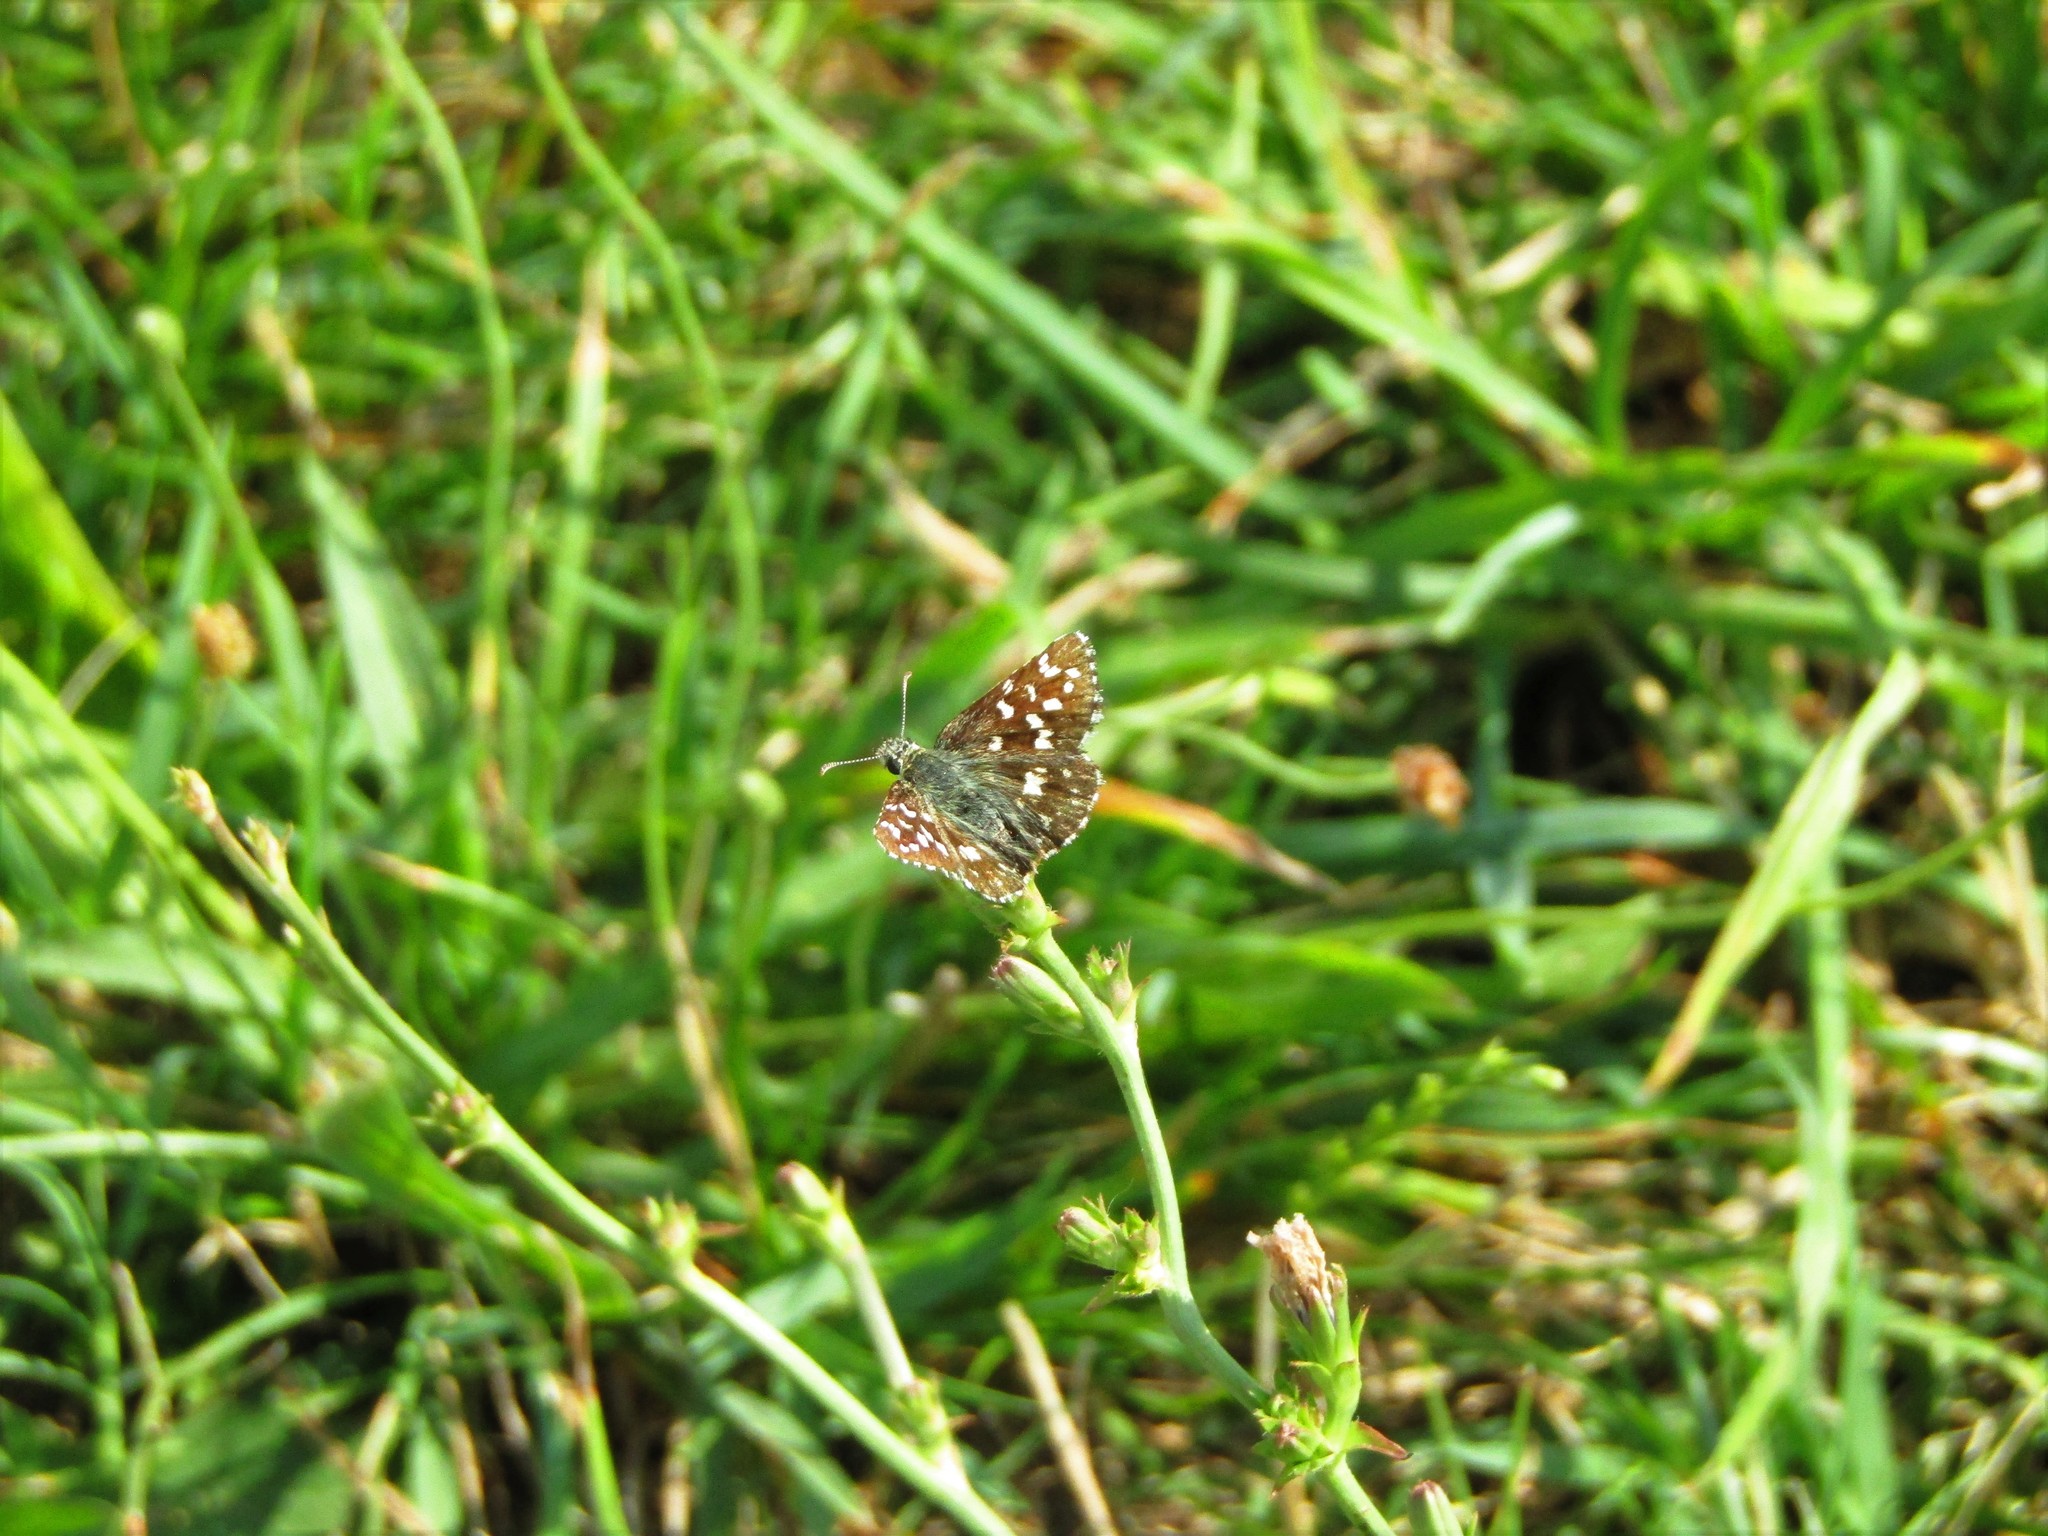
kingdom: Animalia
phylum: Arthropoda
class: Insecta
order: Lepidoptera
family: Hesperiidae
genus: Pyrgus
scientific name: Pyrgus malvoides
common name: Southern grizzled skipper
